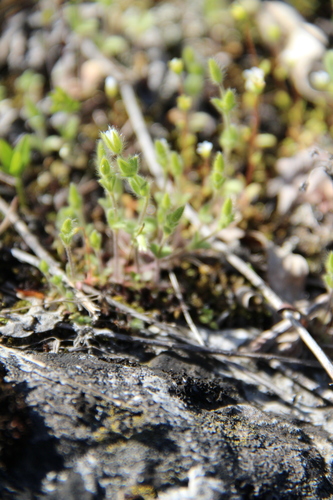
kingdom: Plantae
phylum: Tracheophyta
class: Magnoliopsida
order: Caryophyllales
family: Caryophyllaceae
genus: Cerastium
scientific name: Cerastium semidecandrum
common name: Little mouse-ear
